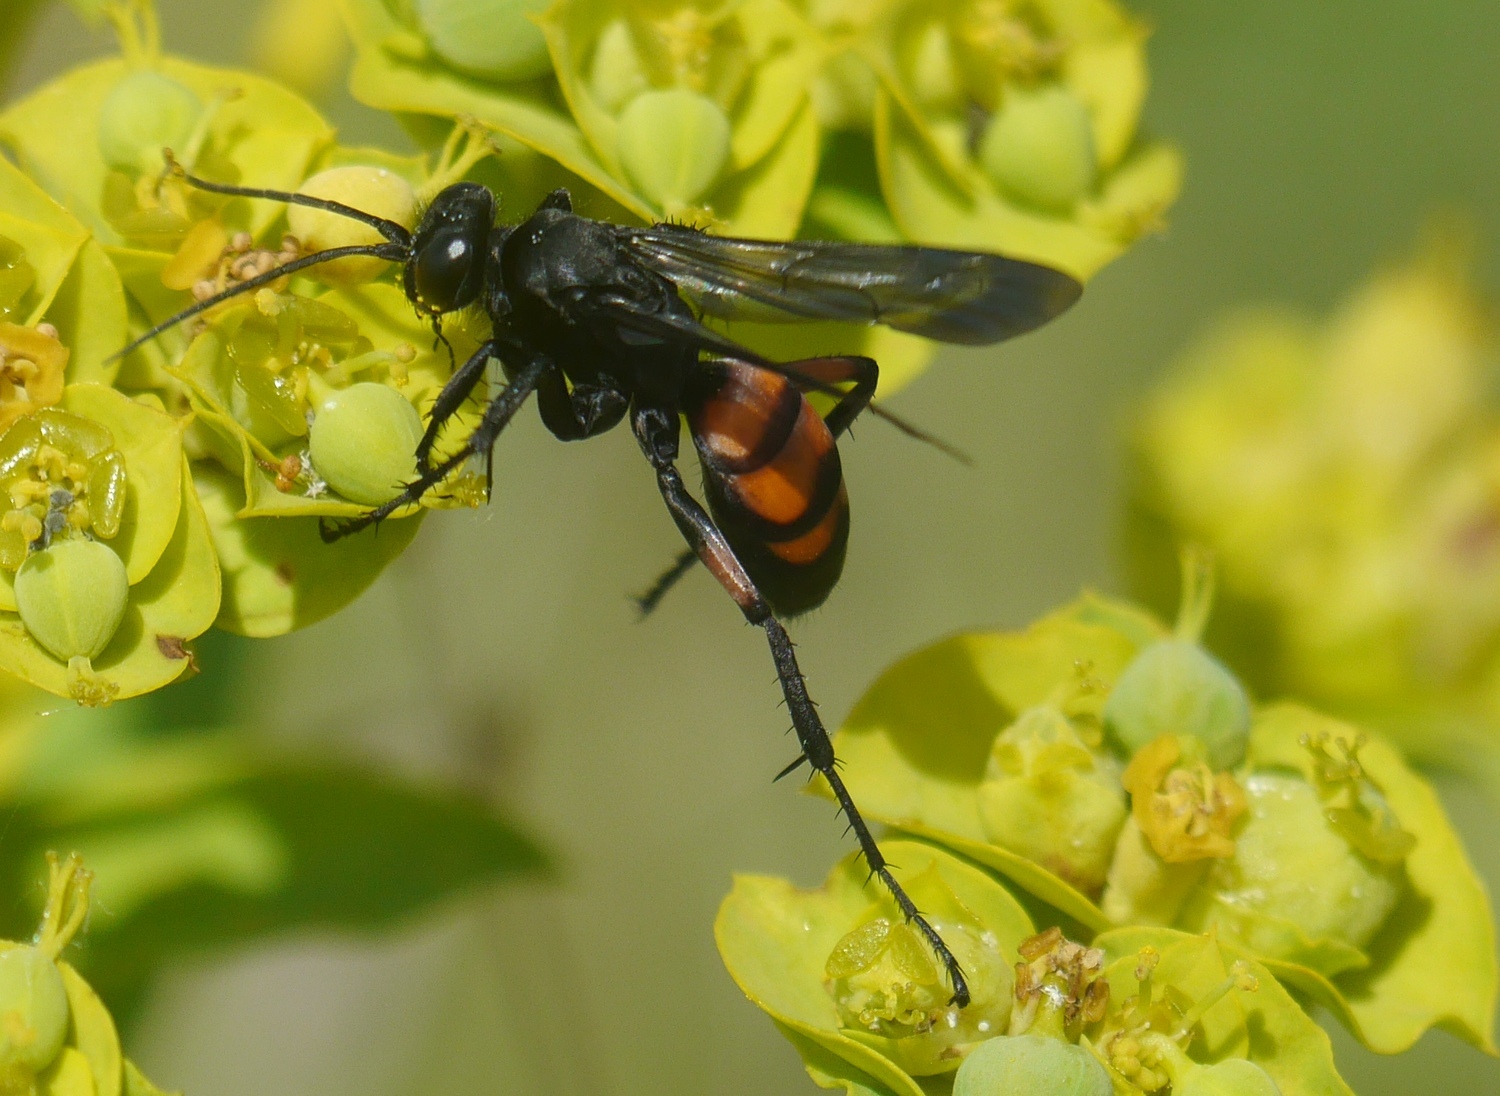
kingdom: Animalia
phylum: Arthropoda
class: Insecta
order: Hymenoptera
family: Pompilidae
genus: Anoplius
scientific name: Anoplius viaticus
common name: Black banded spider wasp
